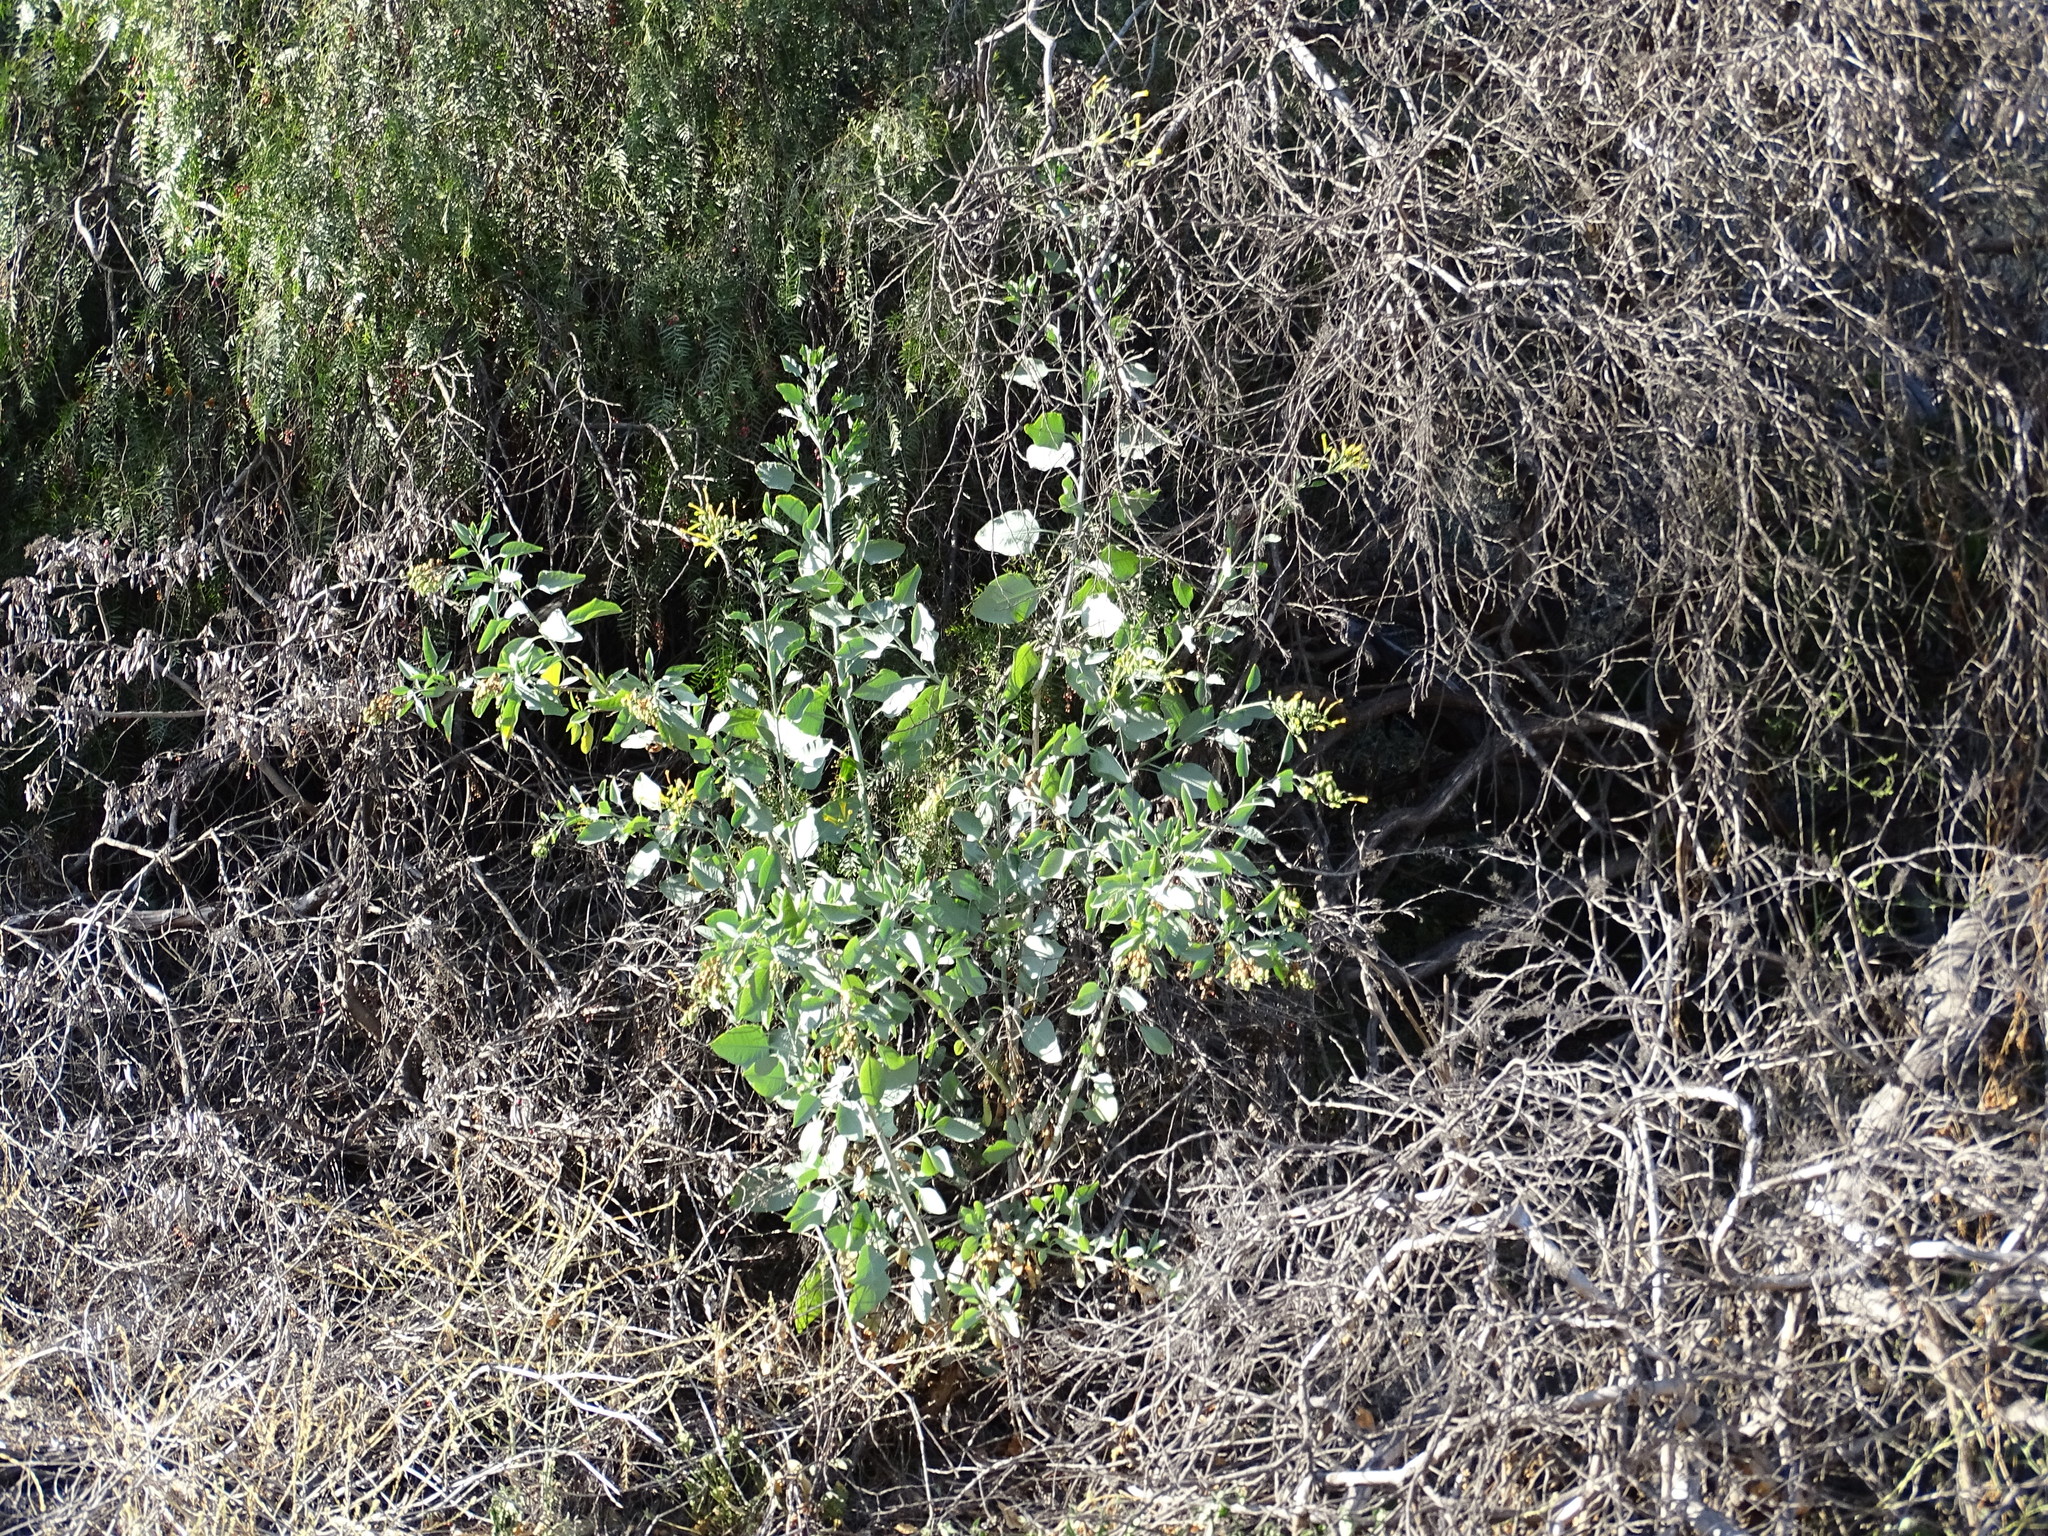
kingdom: Plantae
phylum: Tracheophyta
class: Magnoliopsida
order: Solanales
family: Solanaceae
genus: Nicotiana
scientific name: Nicotiana glauca
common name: Tree tobacco
